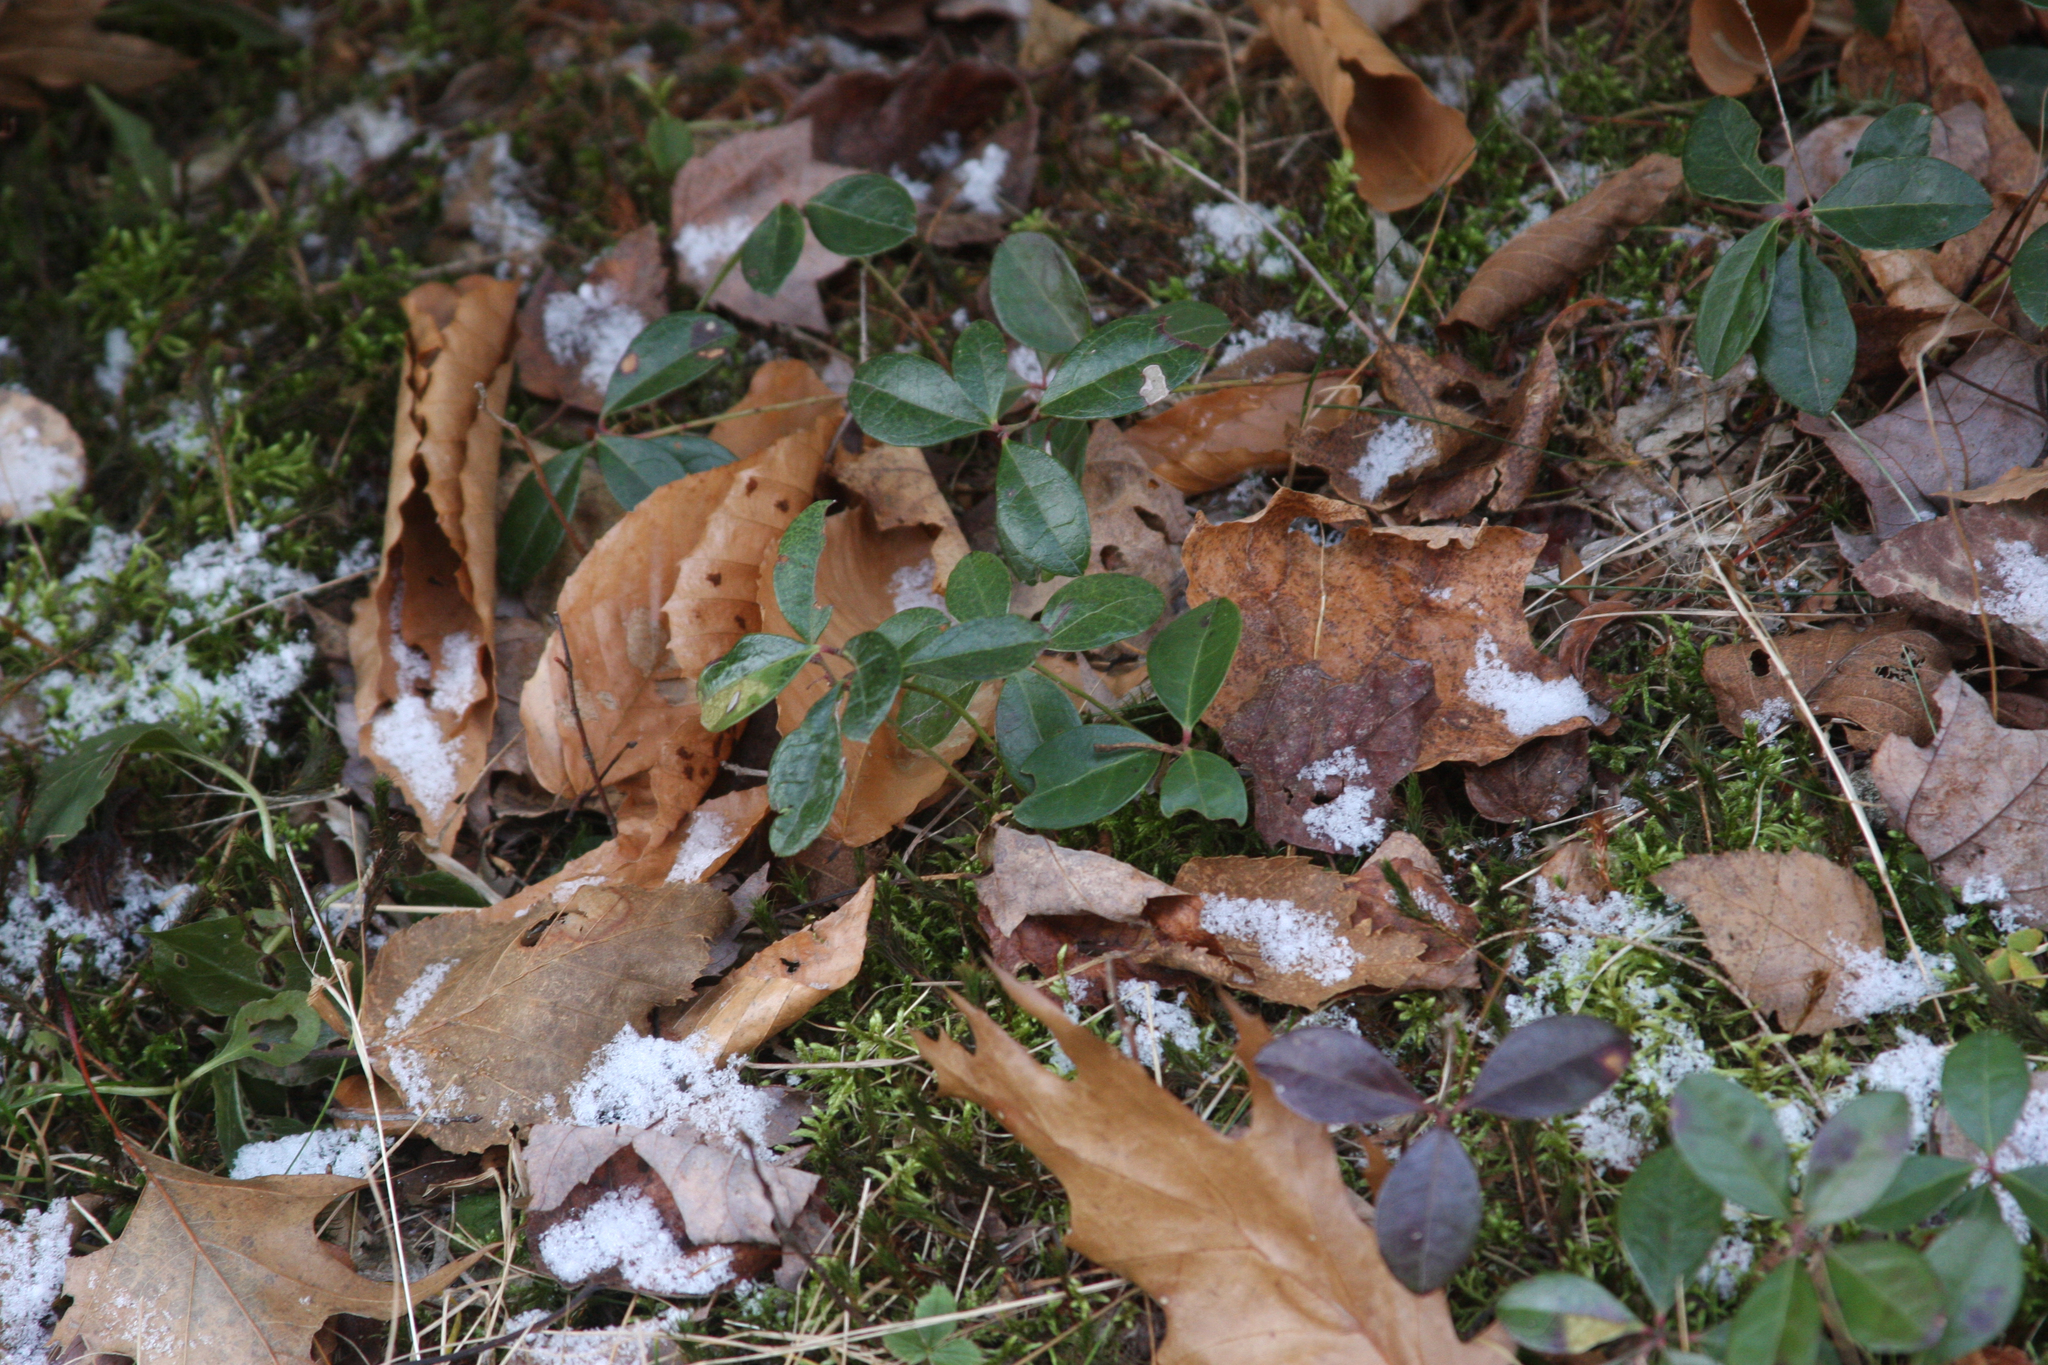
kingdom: Plantae
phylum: Tracheophyta
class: Magnoliopsida
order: Ericales
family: Ericaceae
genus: Gaultheria
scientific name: Gaultheria procumbens
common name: Checkerberry
